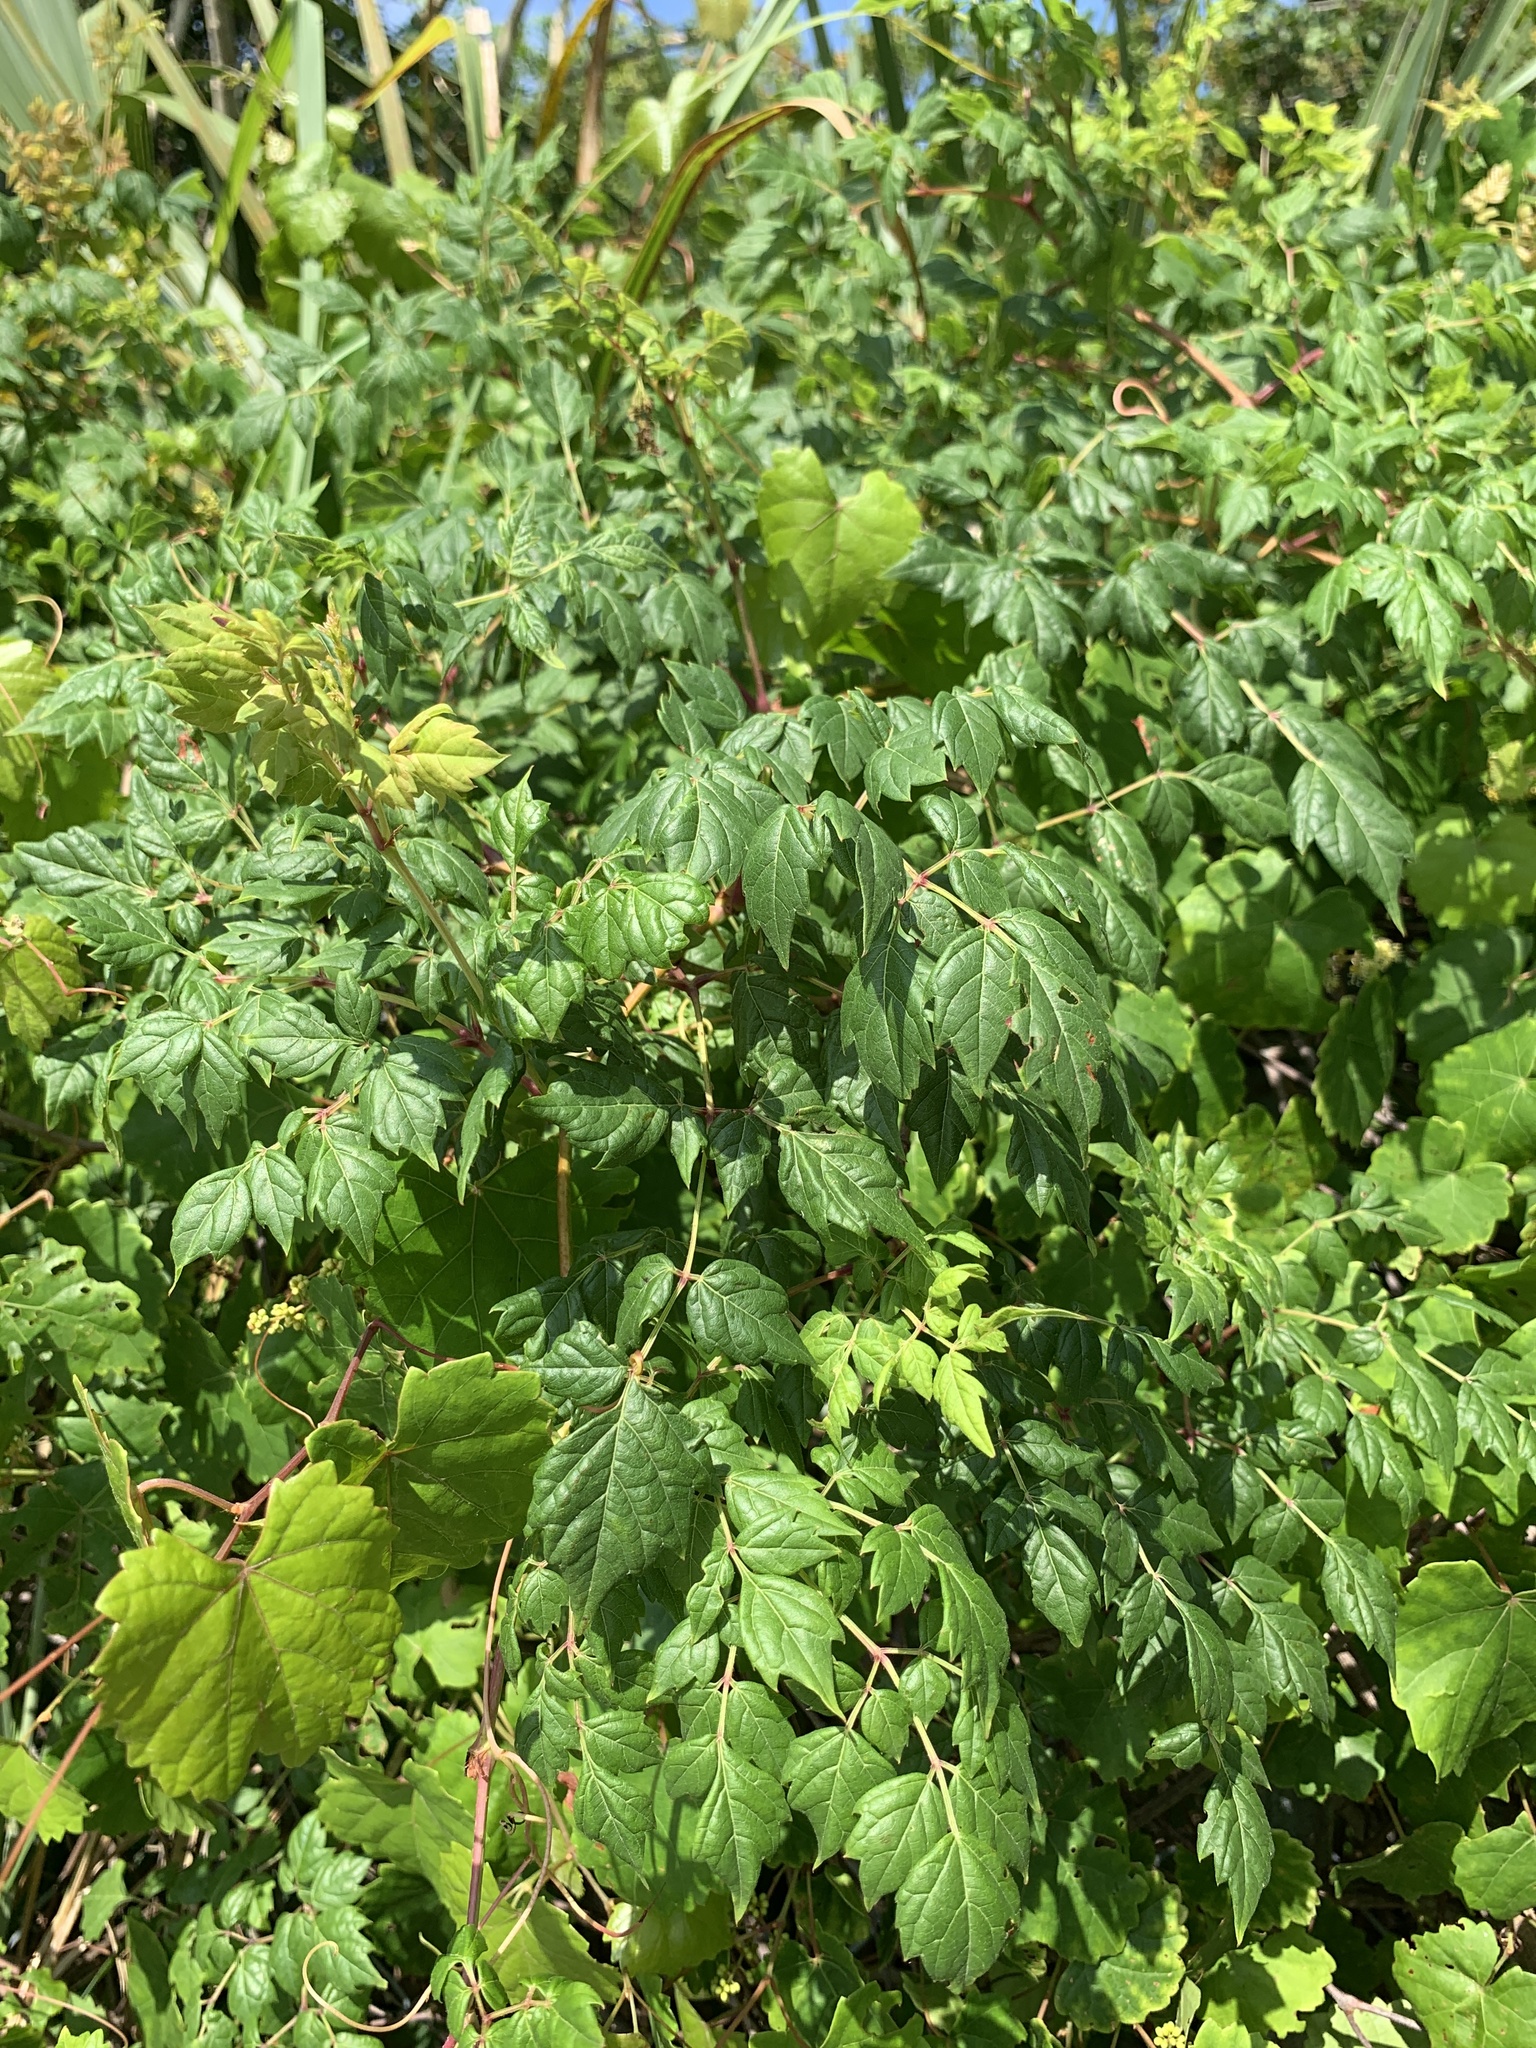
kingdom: Plantae
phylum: Tracheophyta
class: Magnoliopsida
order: Vitales
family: Vitaceae
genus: Nekemias
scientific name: Nekemias arborea
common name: Peppervine
